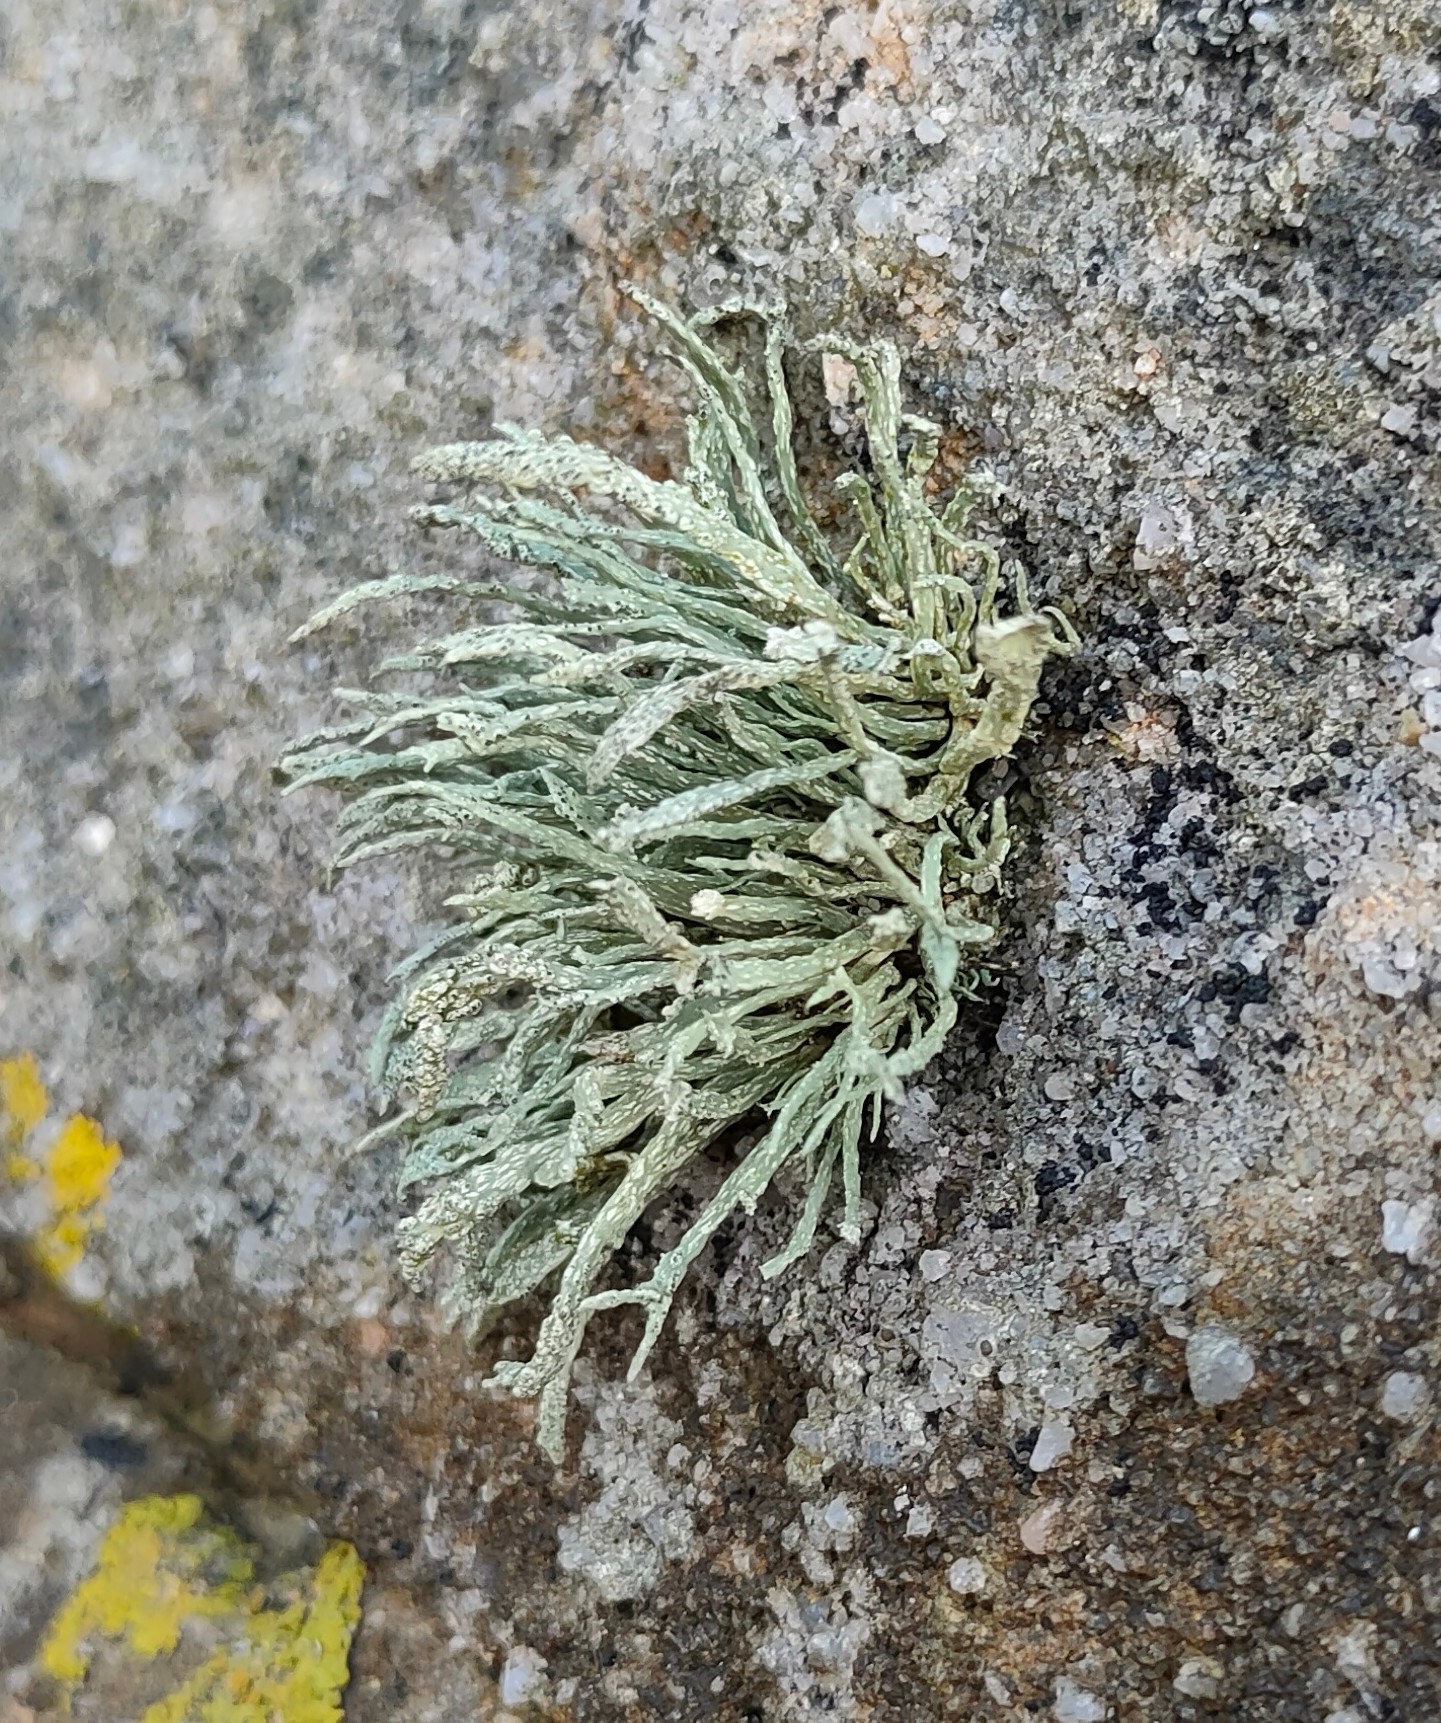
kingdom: Fungi
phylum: Ascomycota
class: Lecanoromycetes
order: Lecanorales
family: Ramalinaceae
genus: Ramalina
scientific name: Ramalina siliquosa
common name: Sea ivory
